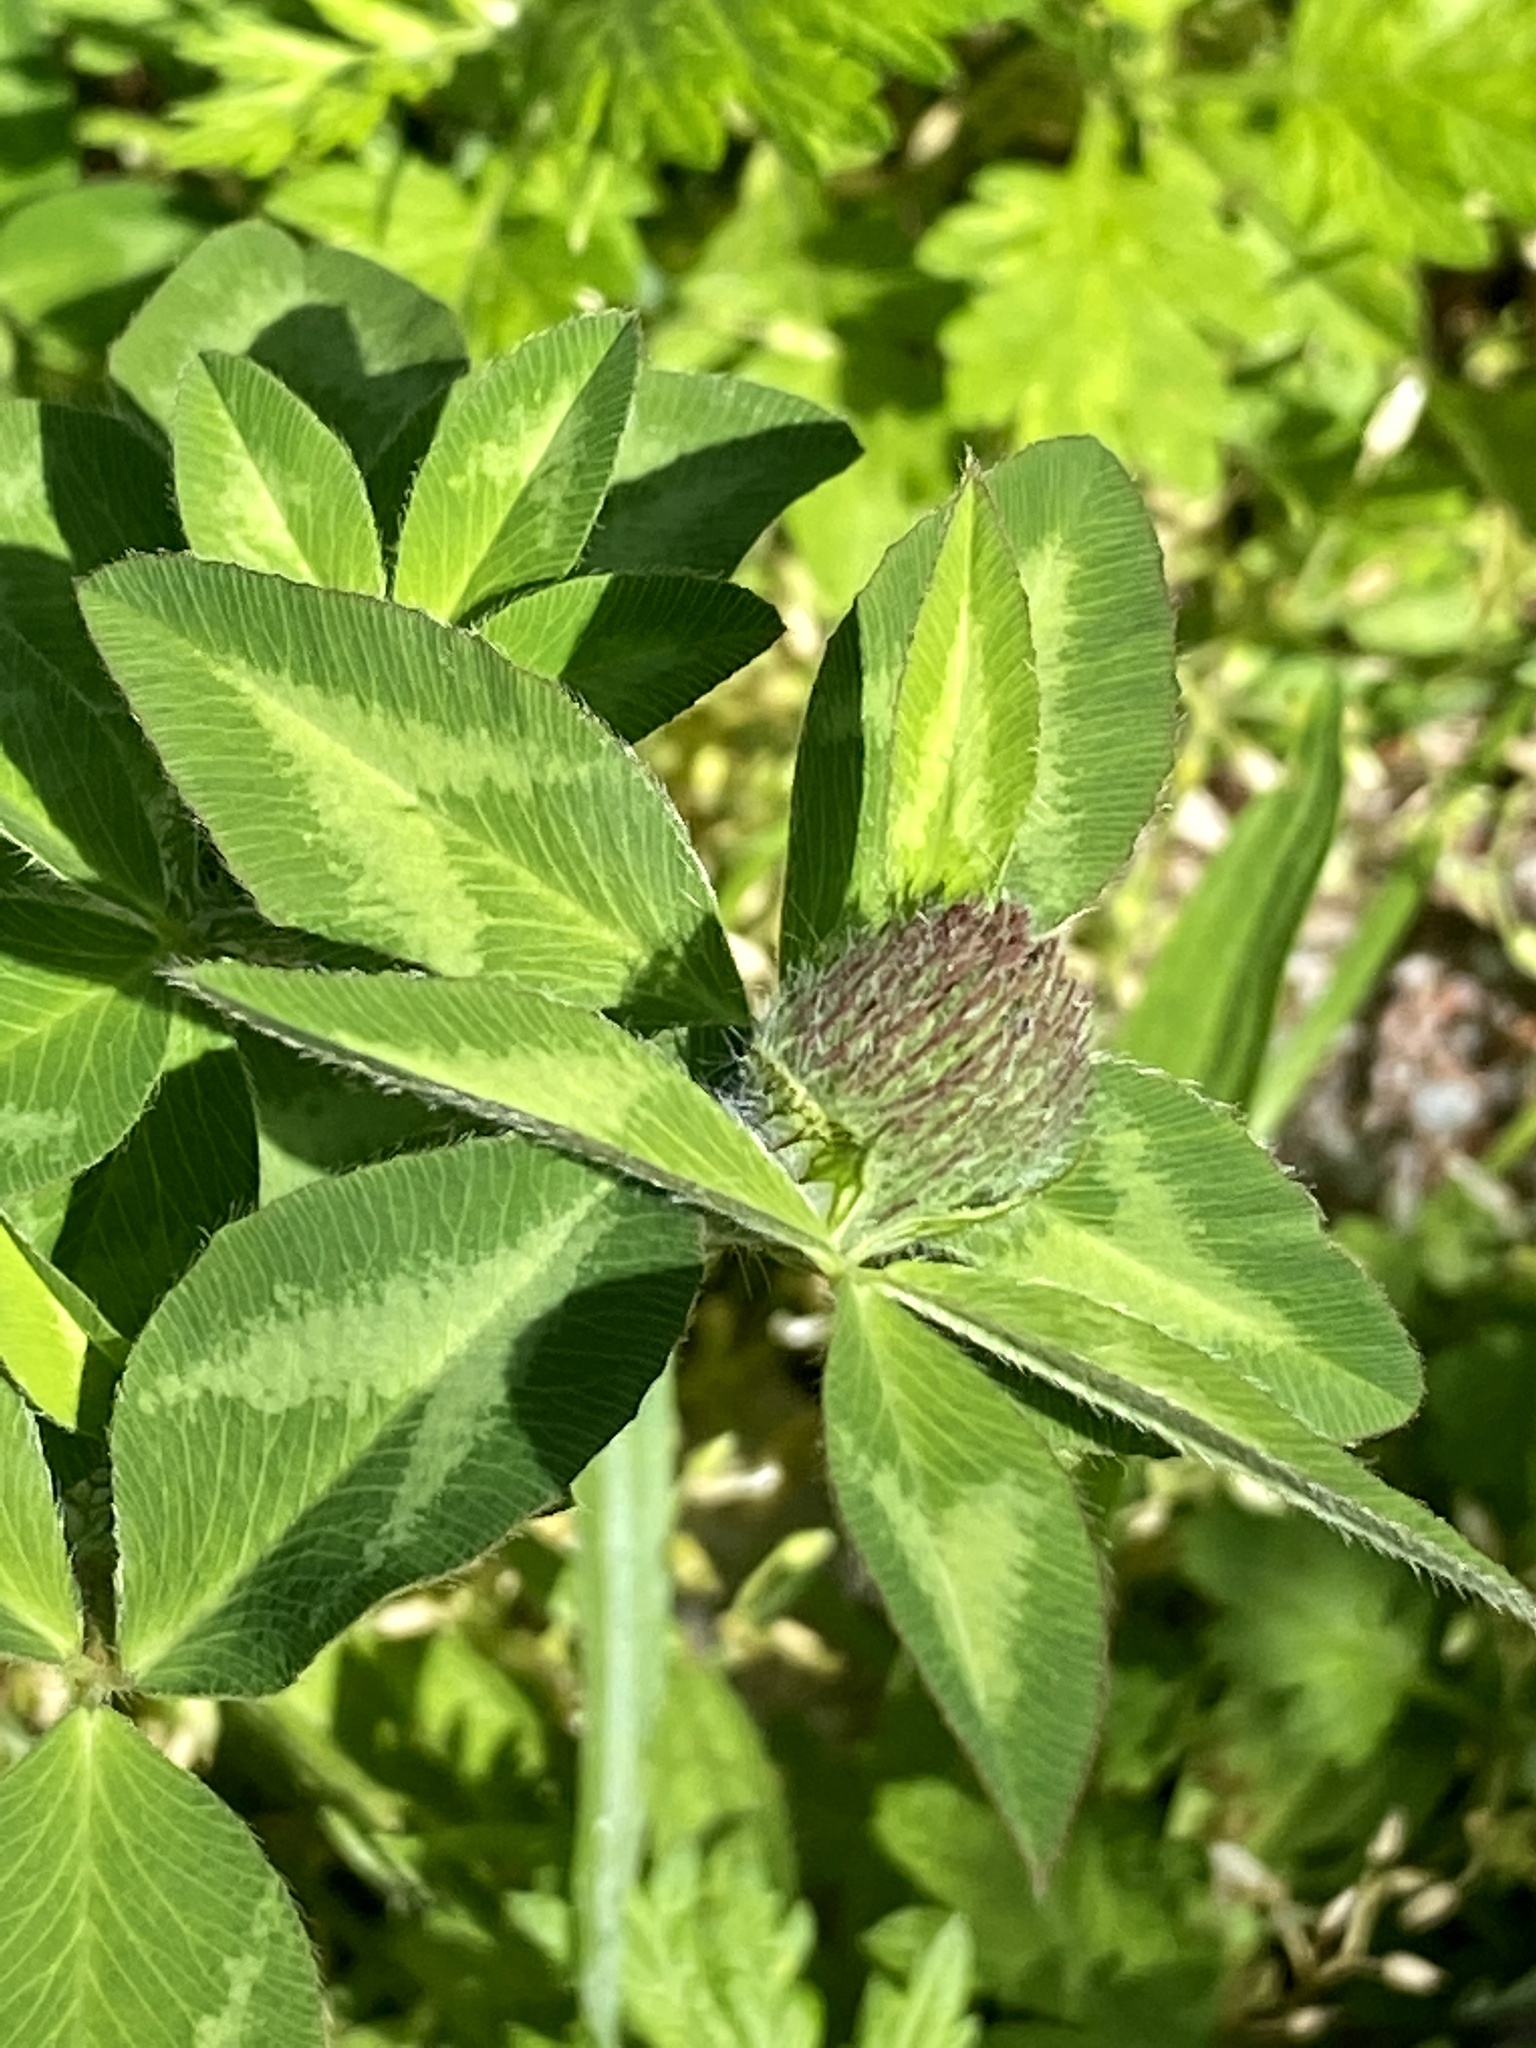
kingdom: Plantae
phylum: Tracheophyta
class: Magnoliopsida
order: Fabales
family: Fabaceae
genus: Trifolium
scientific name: Trifolium pratense
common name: Red clover
